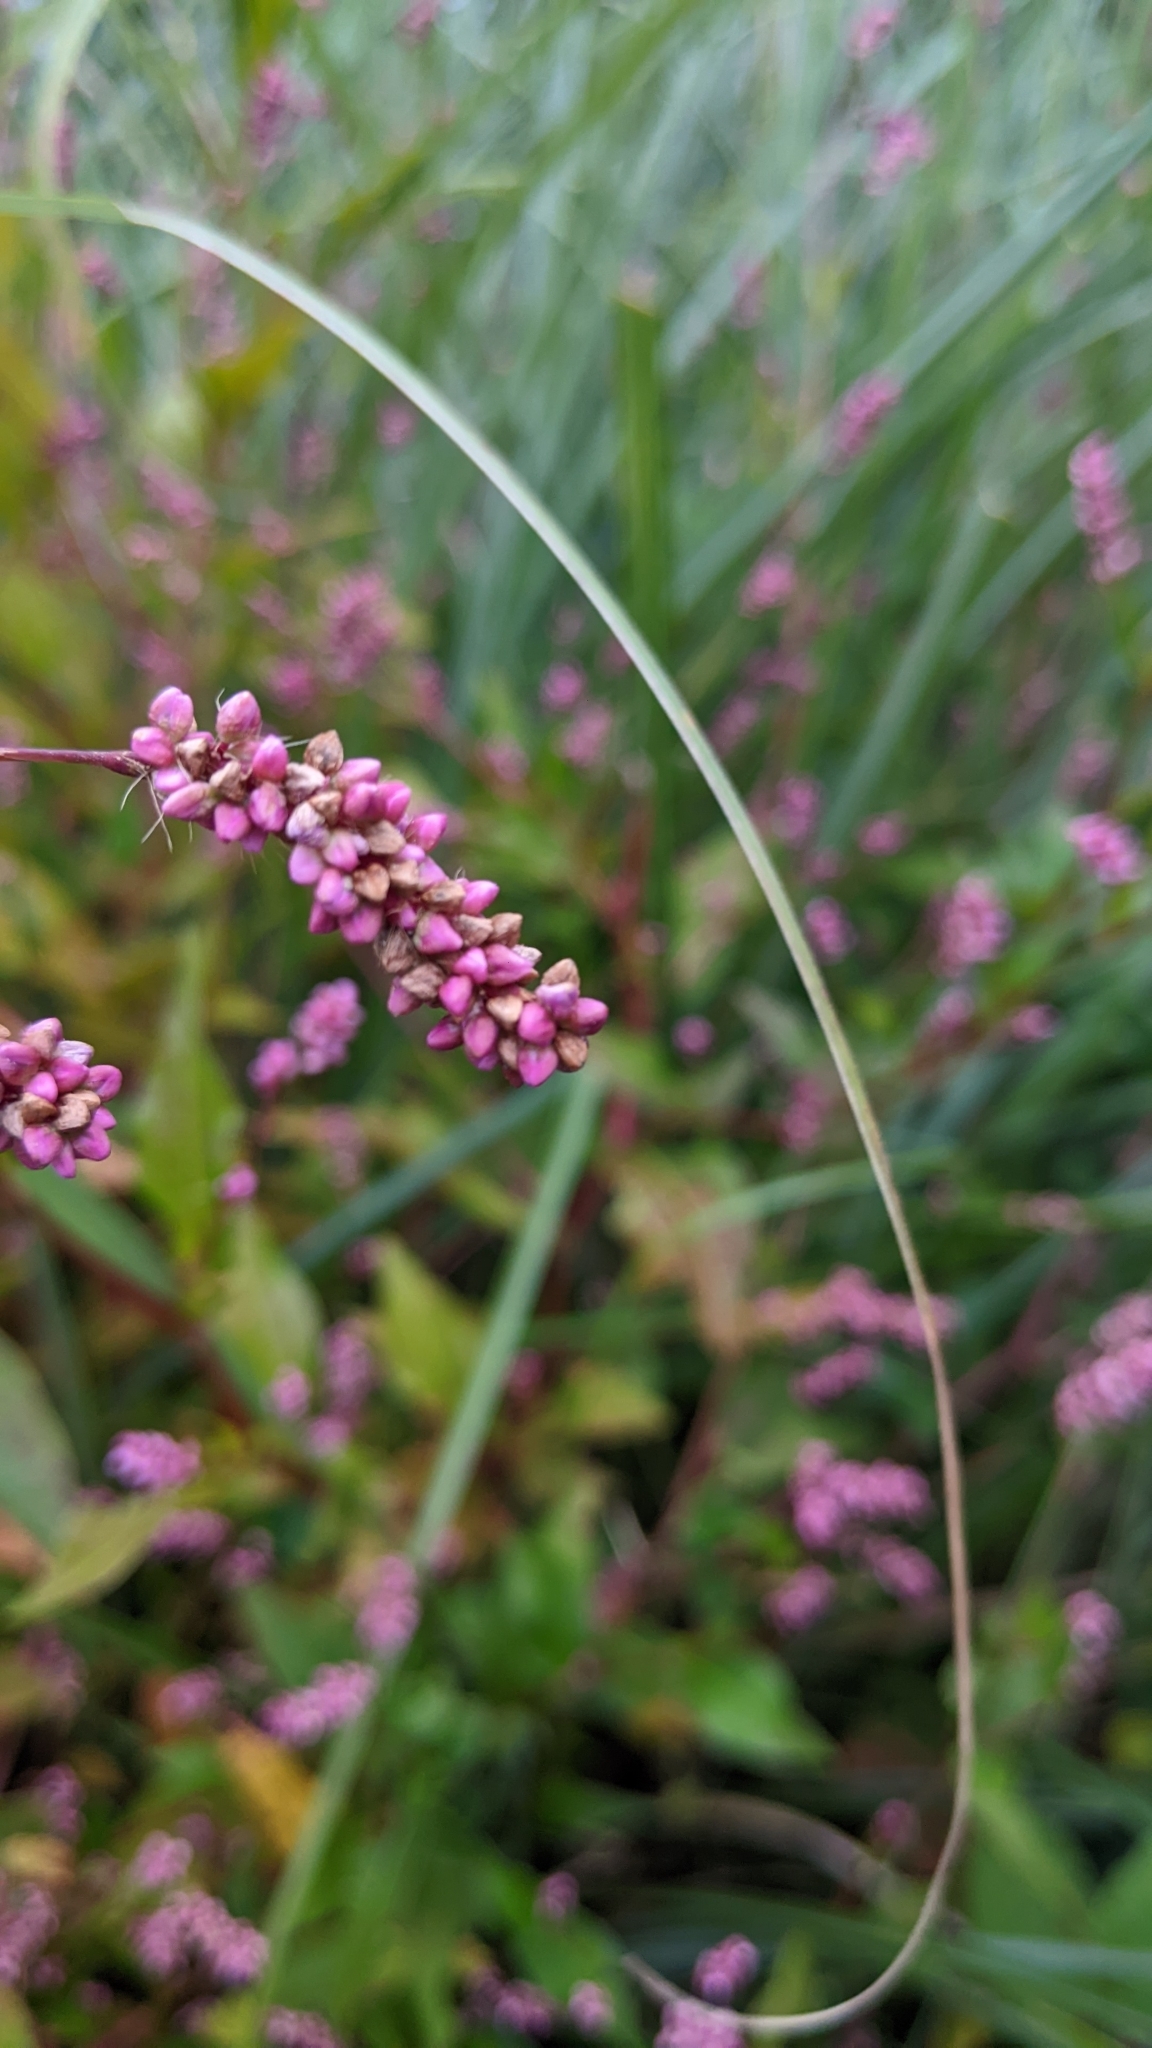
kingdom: Plantae
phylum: Tracheophyta
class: Magnoliopsida
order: Caryophyllales
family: Polygonaceae
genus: Persicaria
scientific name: Persicaria longiseta
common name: Bristly lady's-thumb
